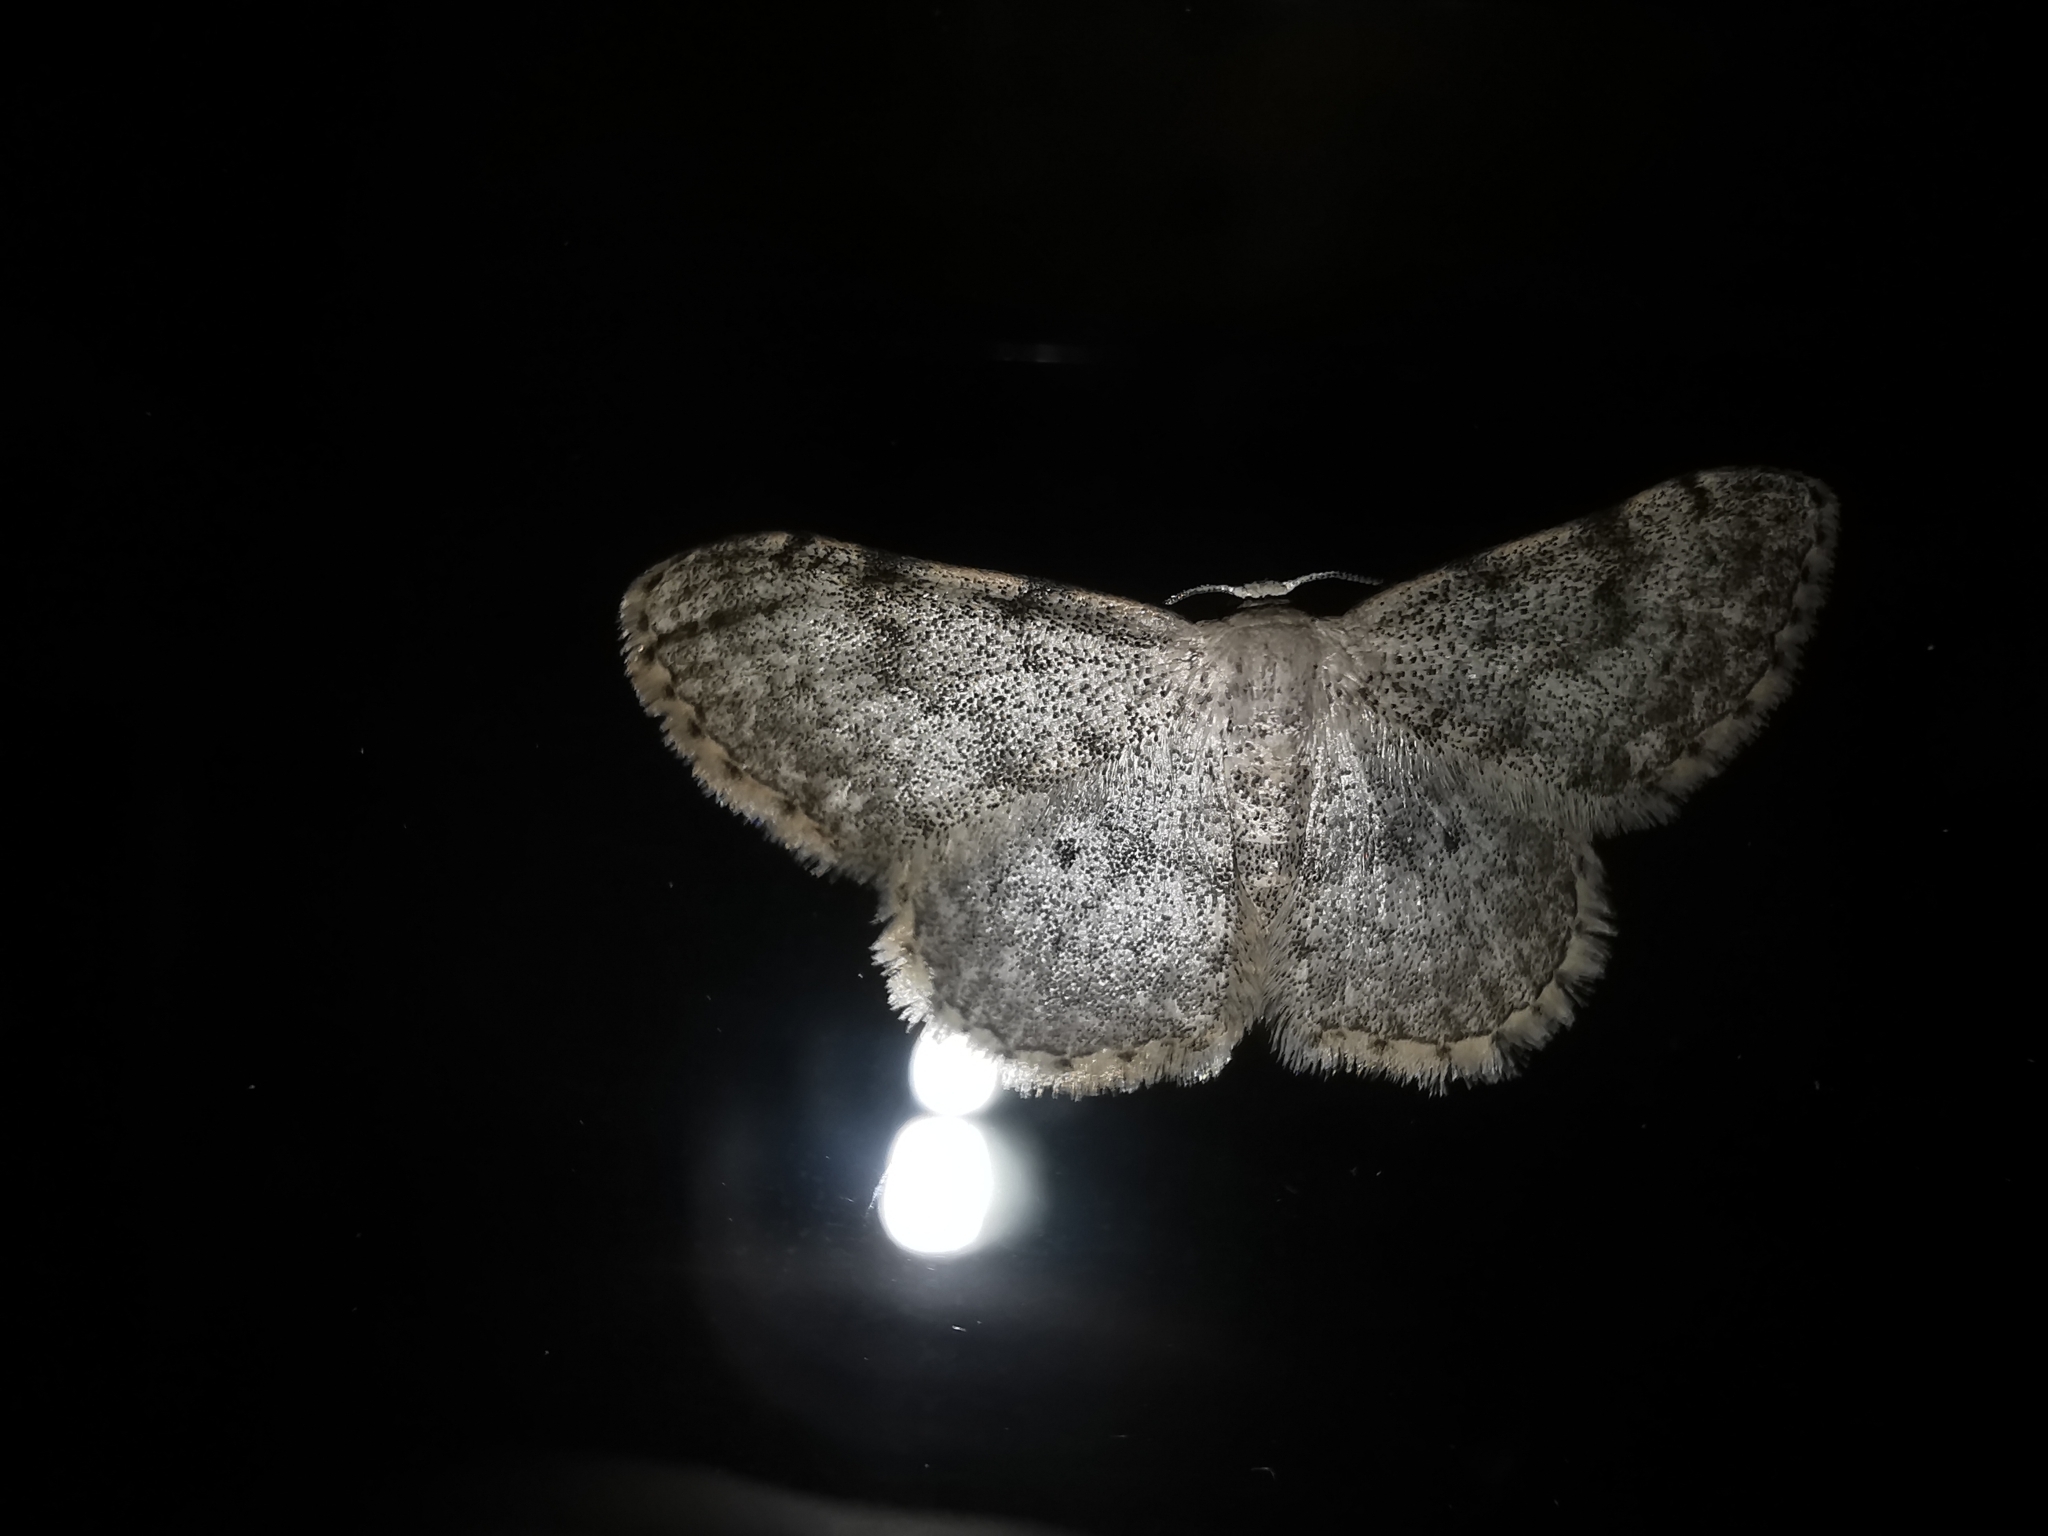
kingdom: Animalia
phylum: Arthropoda
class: Insecta
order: Lepidoptera
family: Geometridae
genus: Idaea
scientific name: Idaea camparia
